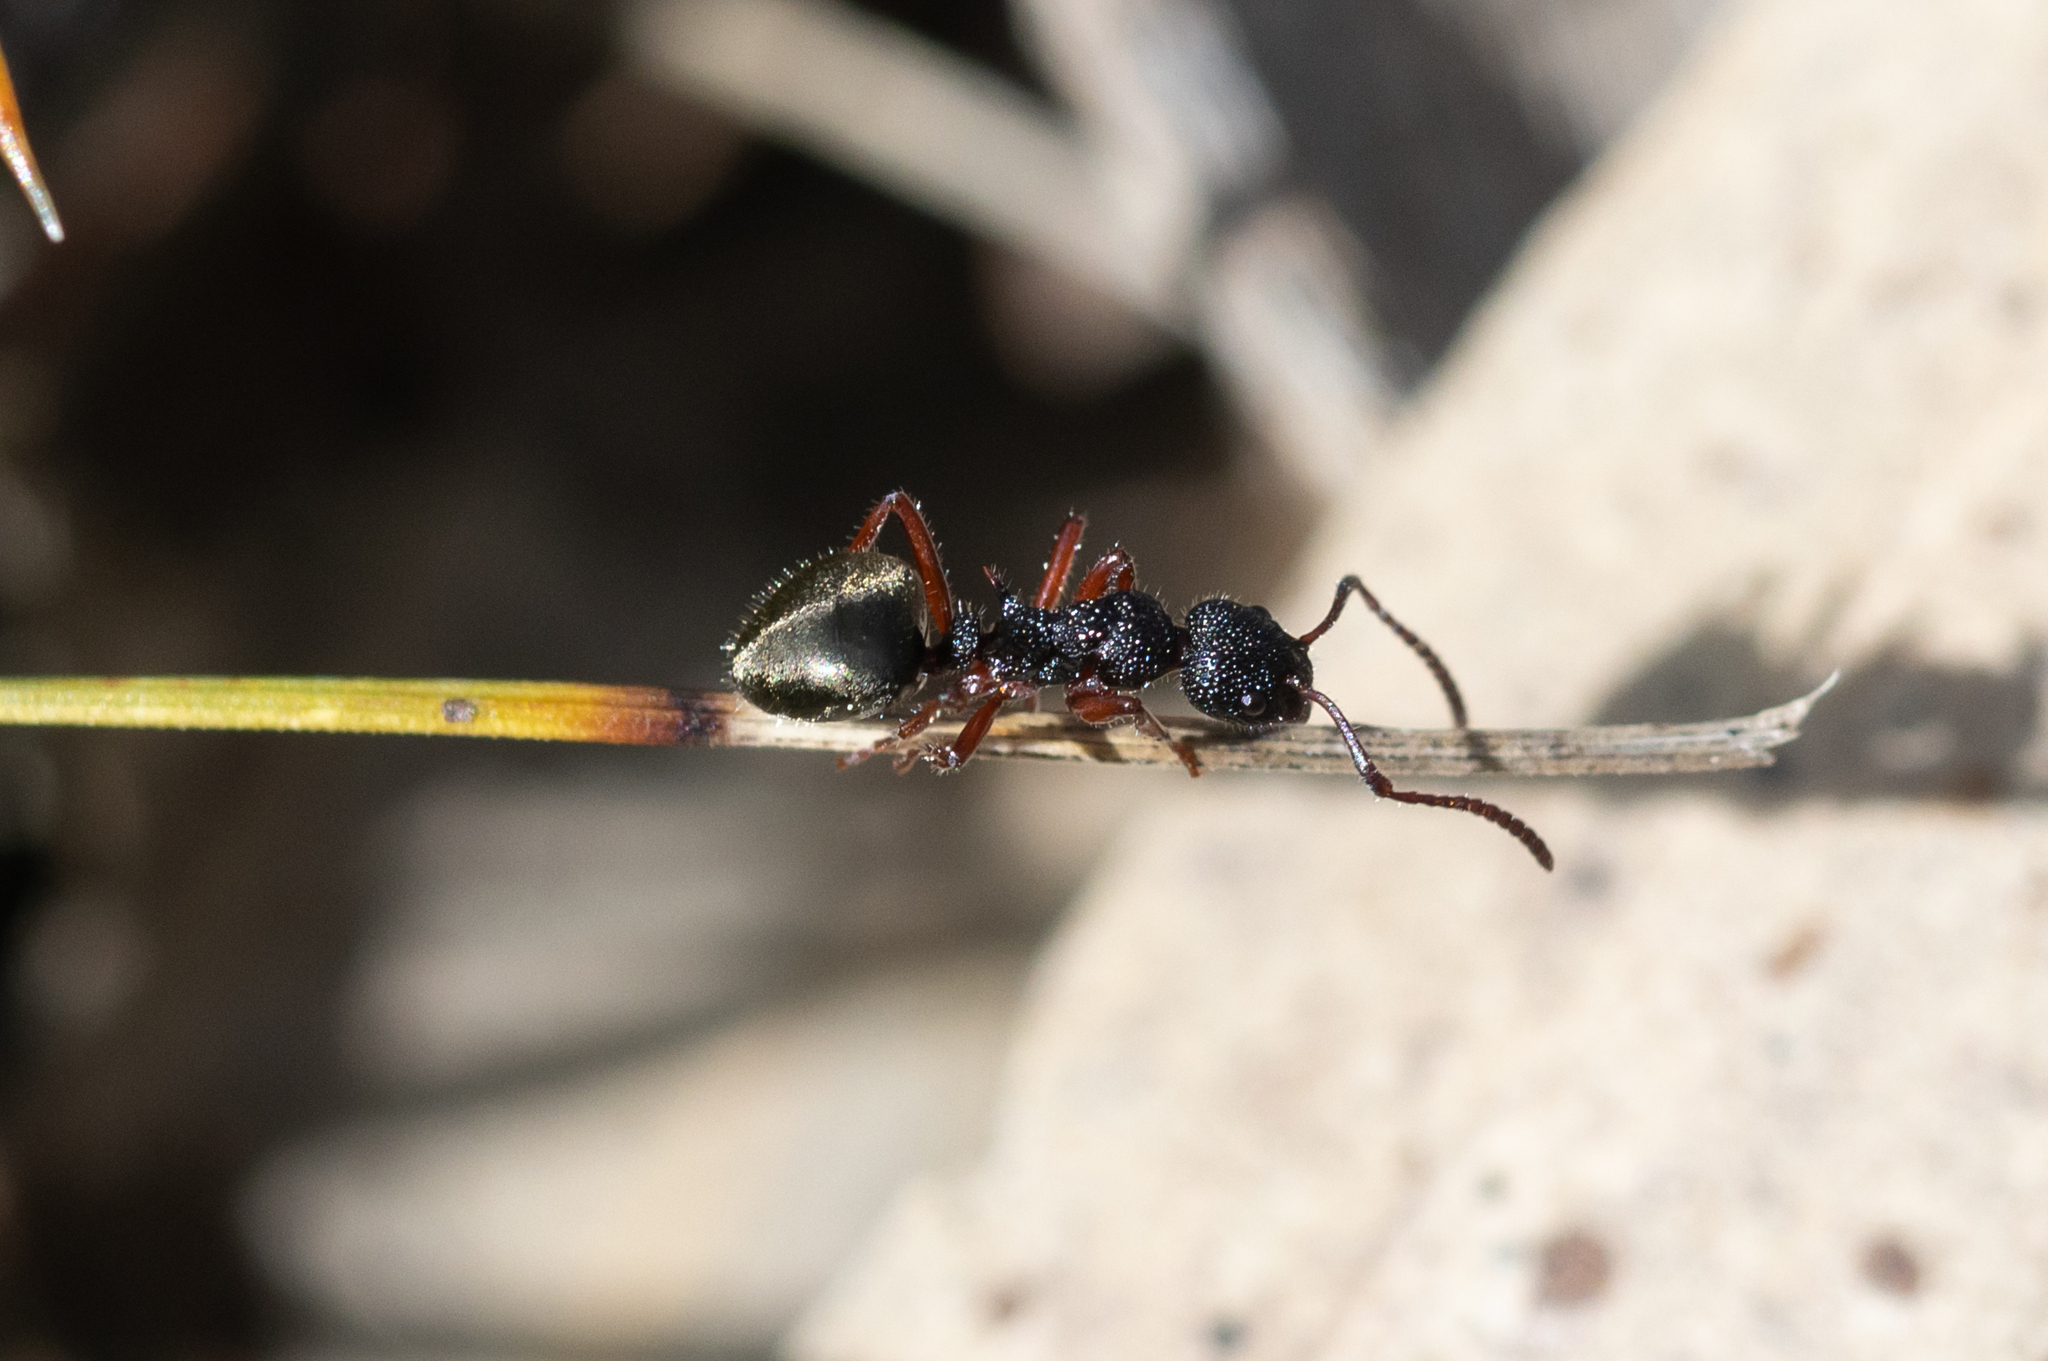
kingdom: Animalia
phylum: Arthropoda
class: Insecta
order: Hymenoptera
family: Formicidae
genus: Dolichoderus
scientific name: Dolichoderus scabridus
